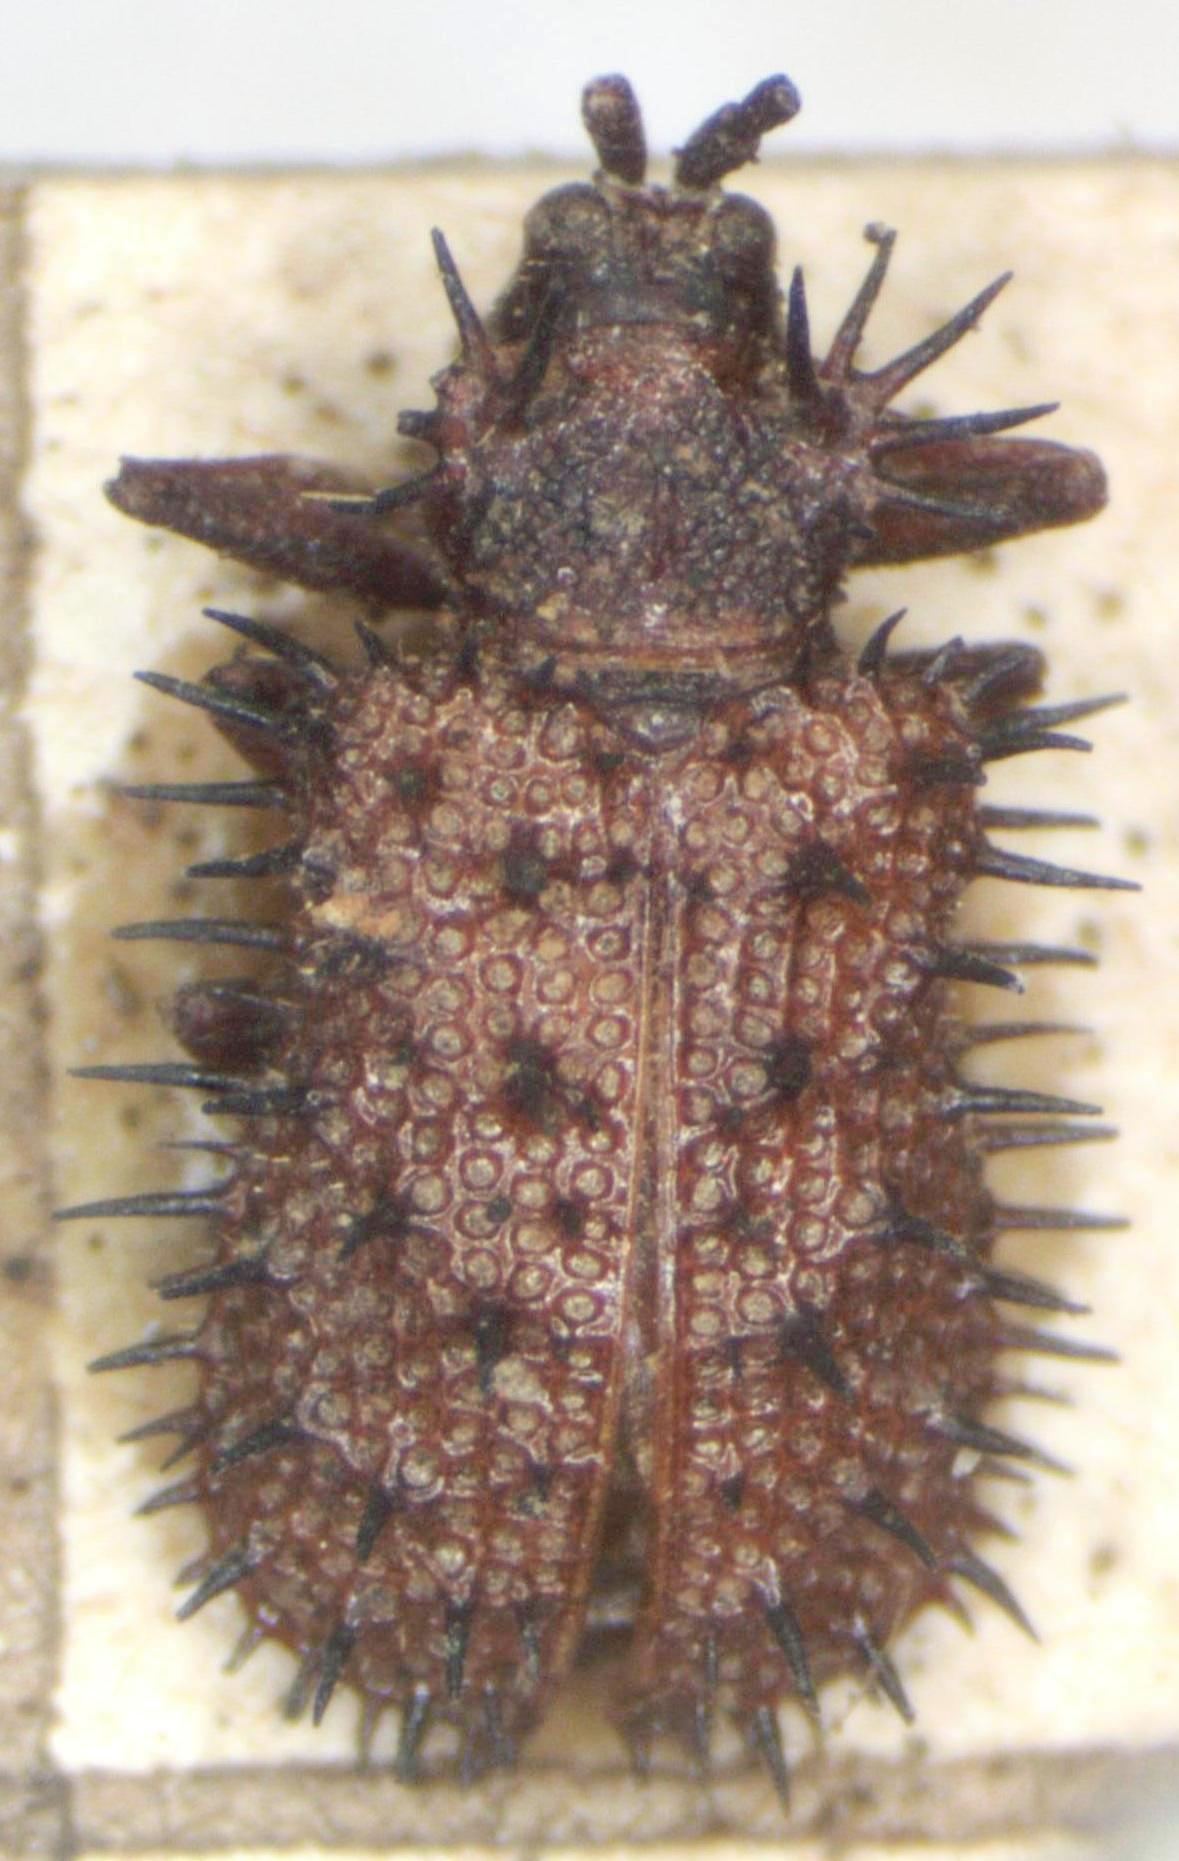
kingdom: Animalia
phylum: Arthropoda
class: Insecta
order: Coleoptera
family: Chrysomelidae
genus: Dicladispa
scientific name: Dicladispa testacea
